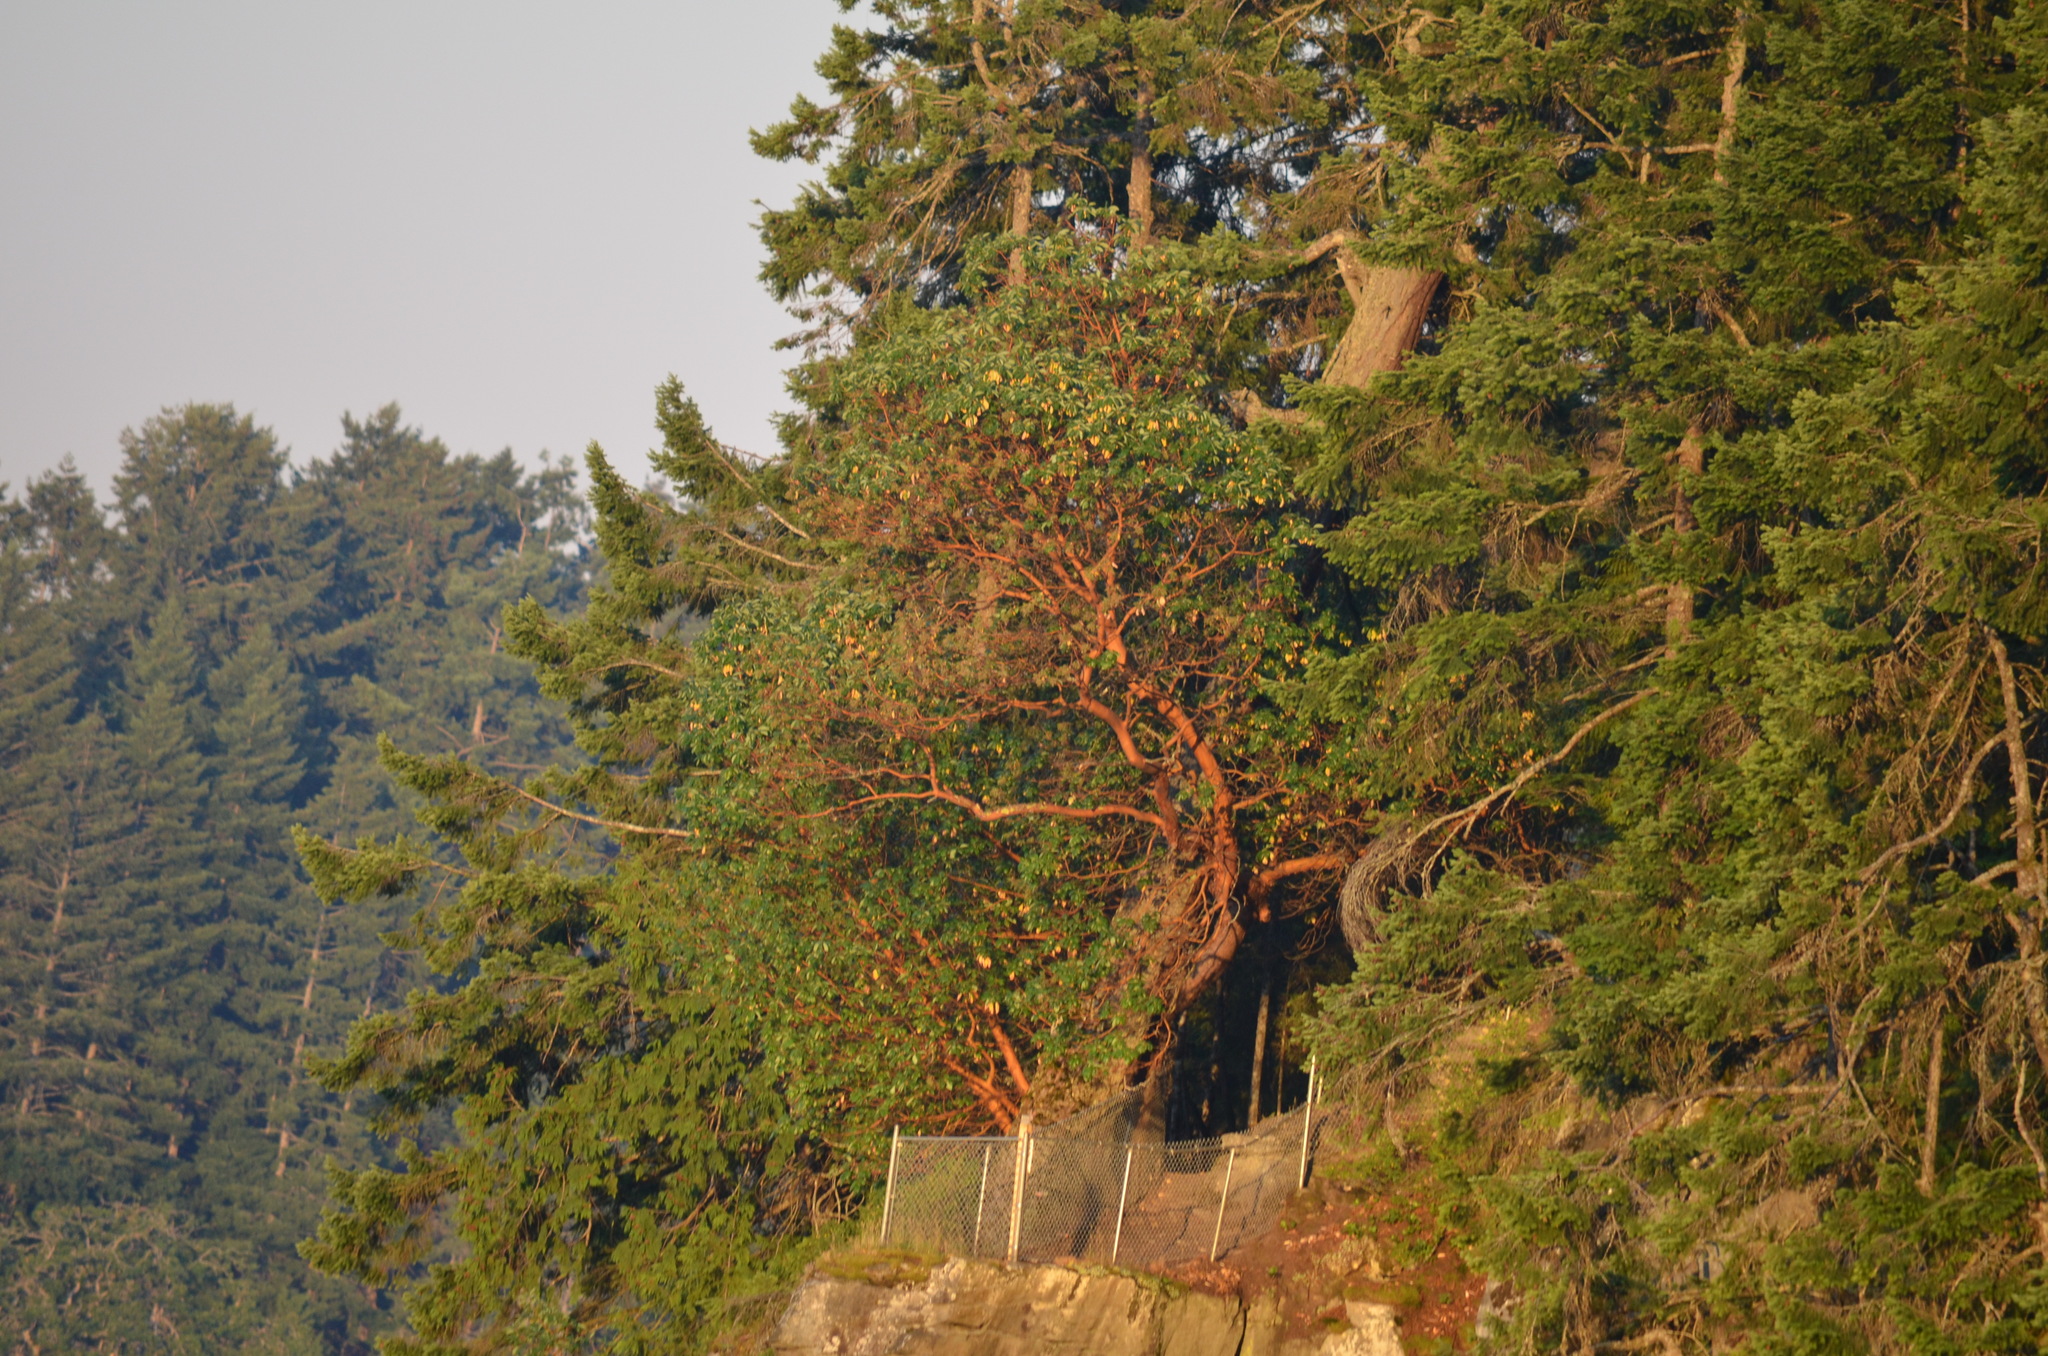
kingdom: Plantae
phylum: Tracheophyta
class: Magnoliopsida
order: Ericales
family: Ericaceae
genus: Arbutus
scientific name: Arbutus menziesii
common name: Pacific madrone
